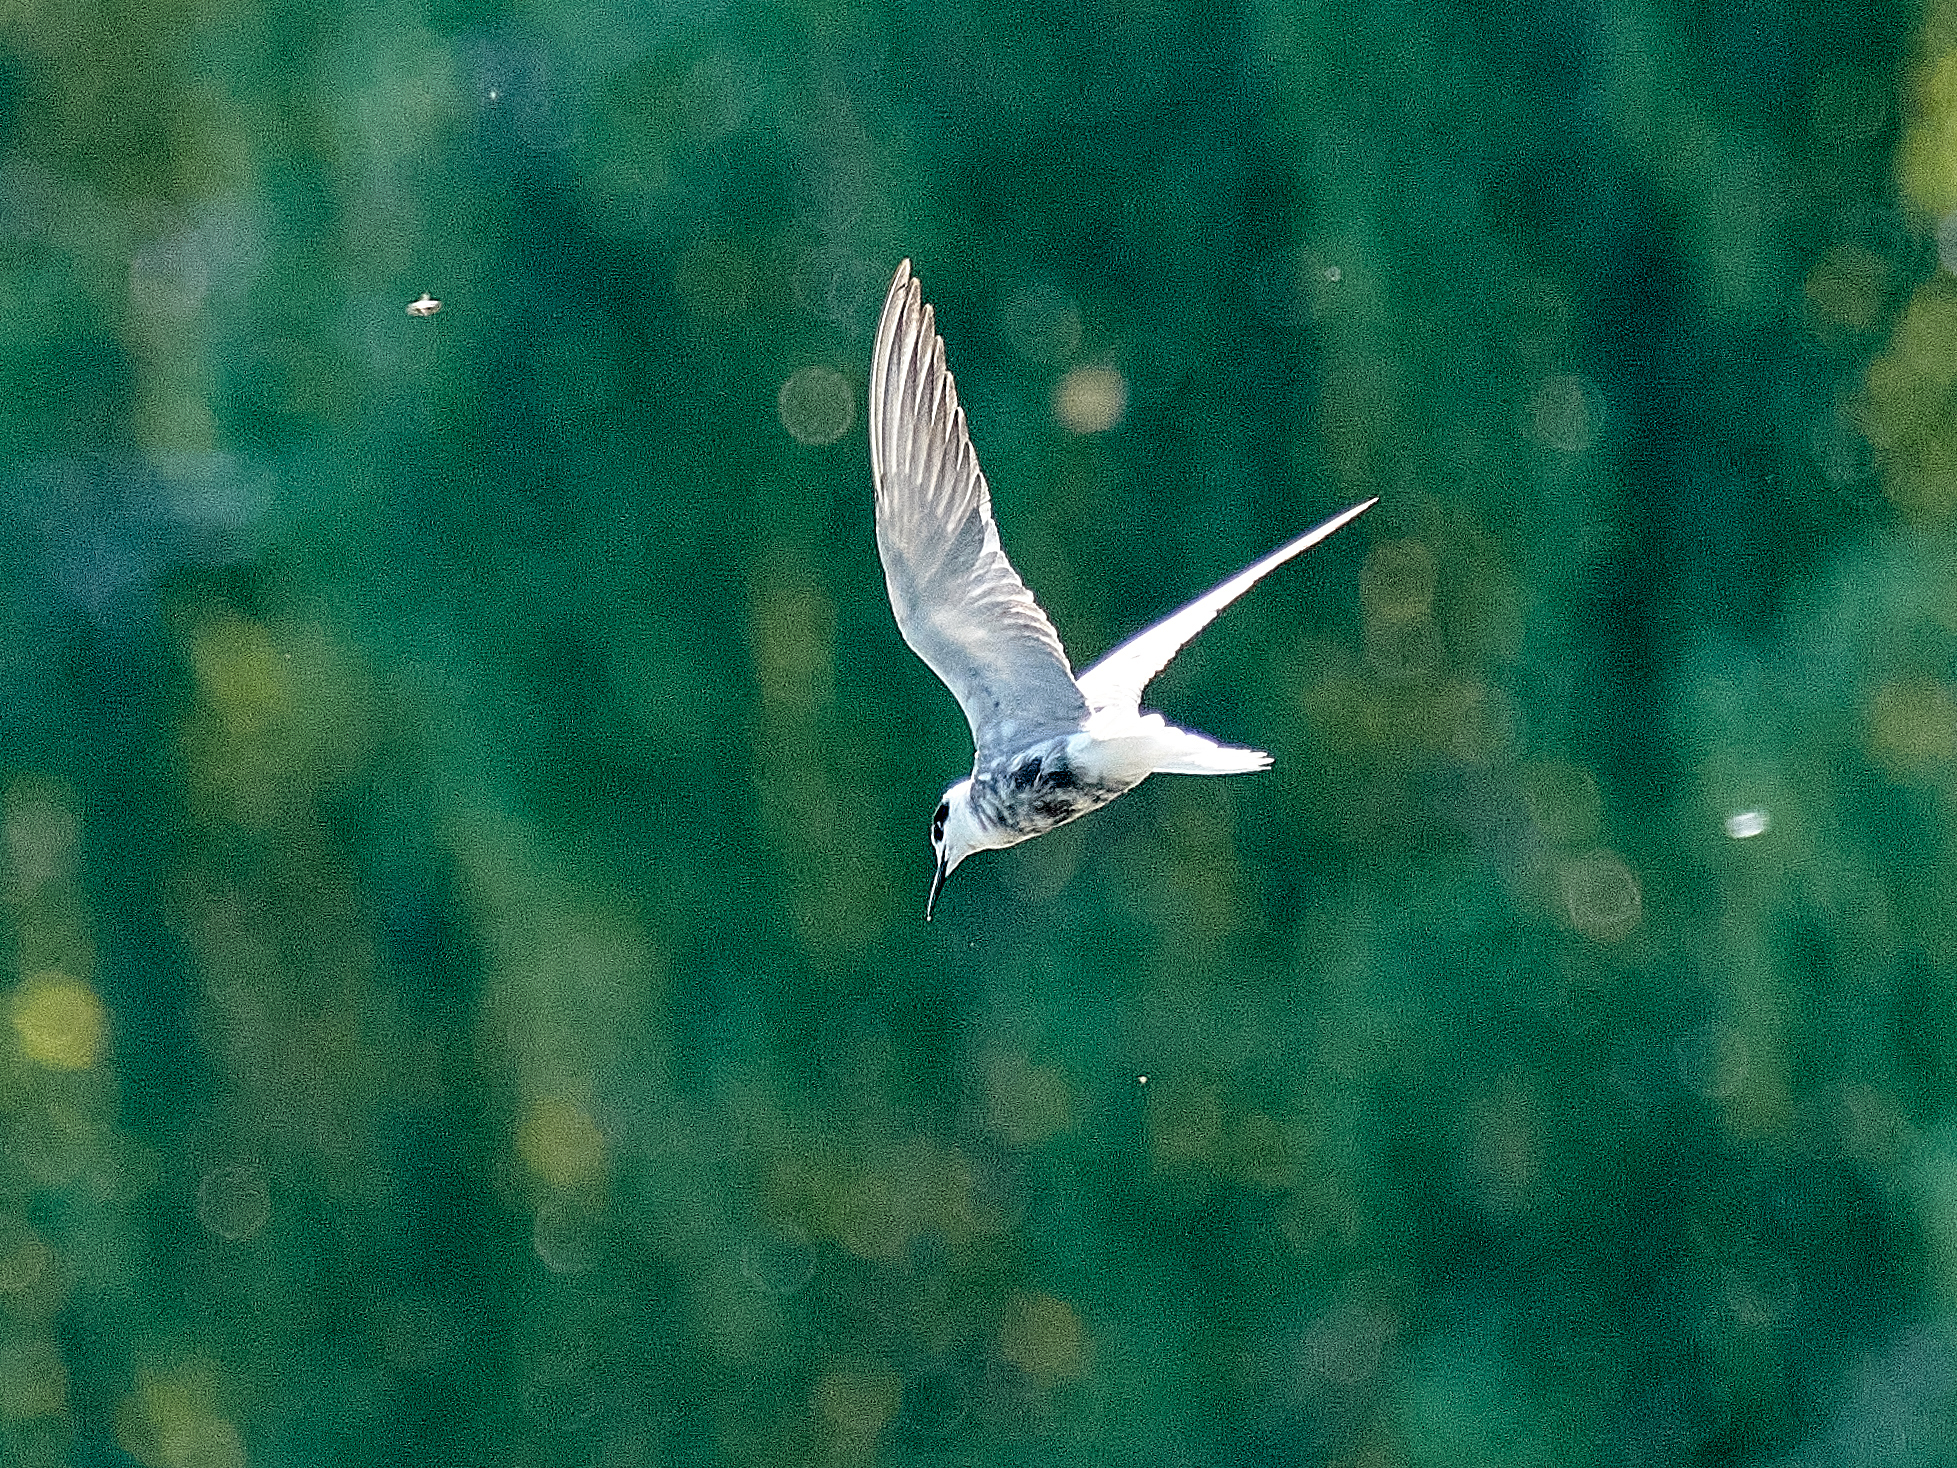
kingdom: Animalia
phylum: Chordata
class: Aves
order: Charadriiformes
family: Laridae
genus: Chlidonias
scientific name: Chlidonias niger
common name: Black tern
